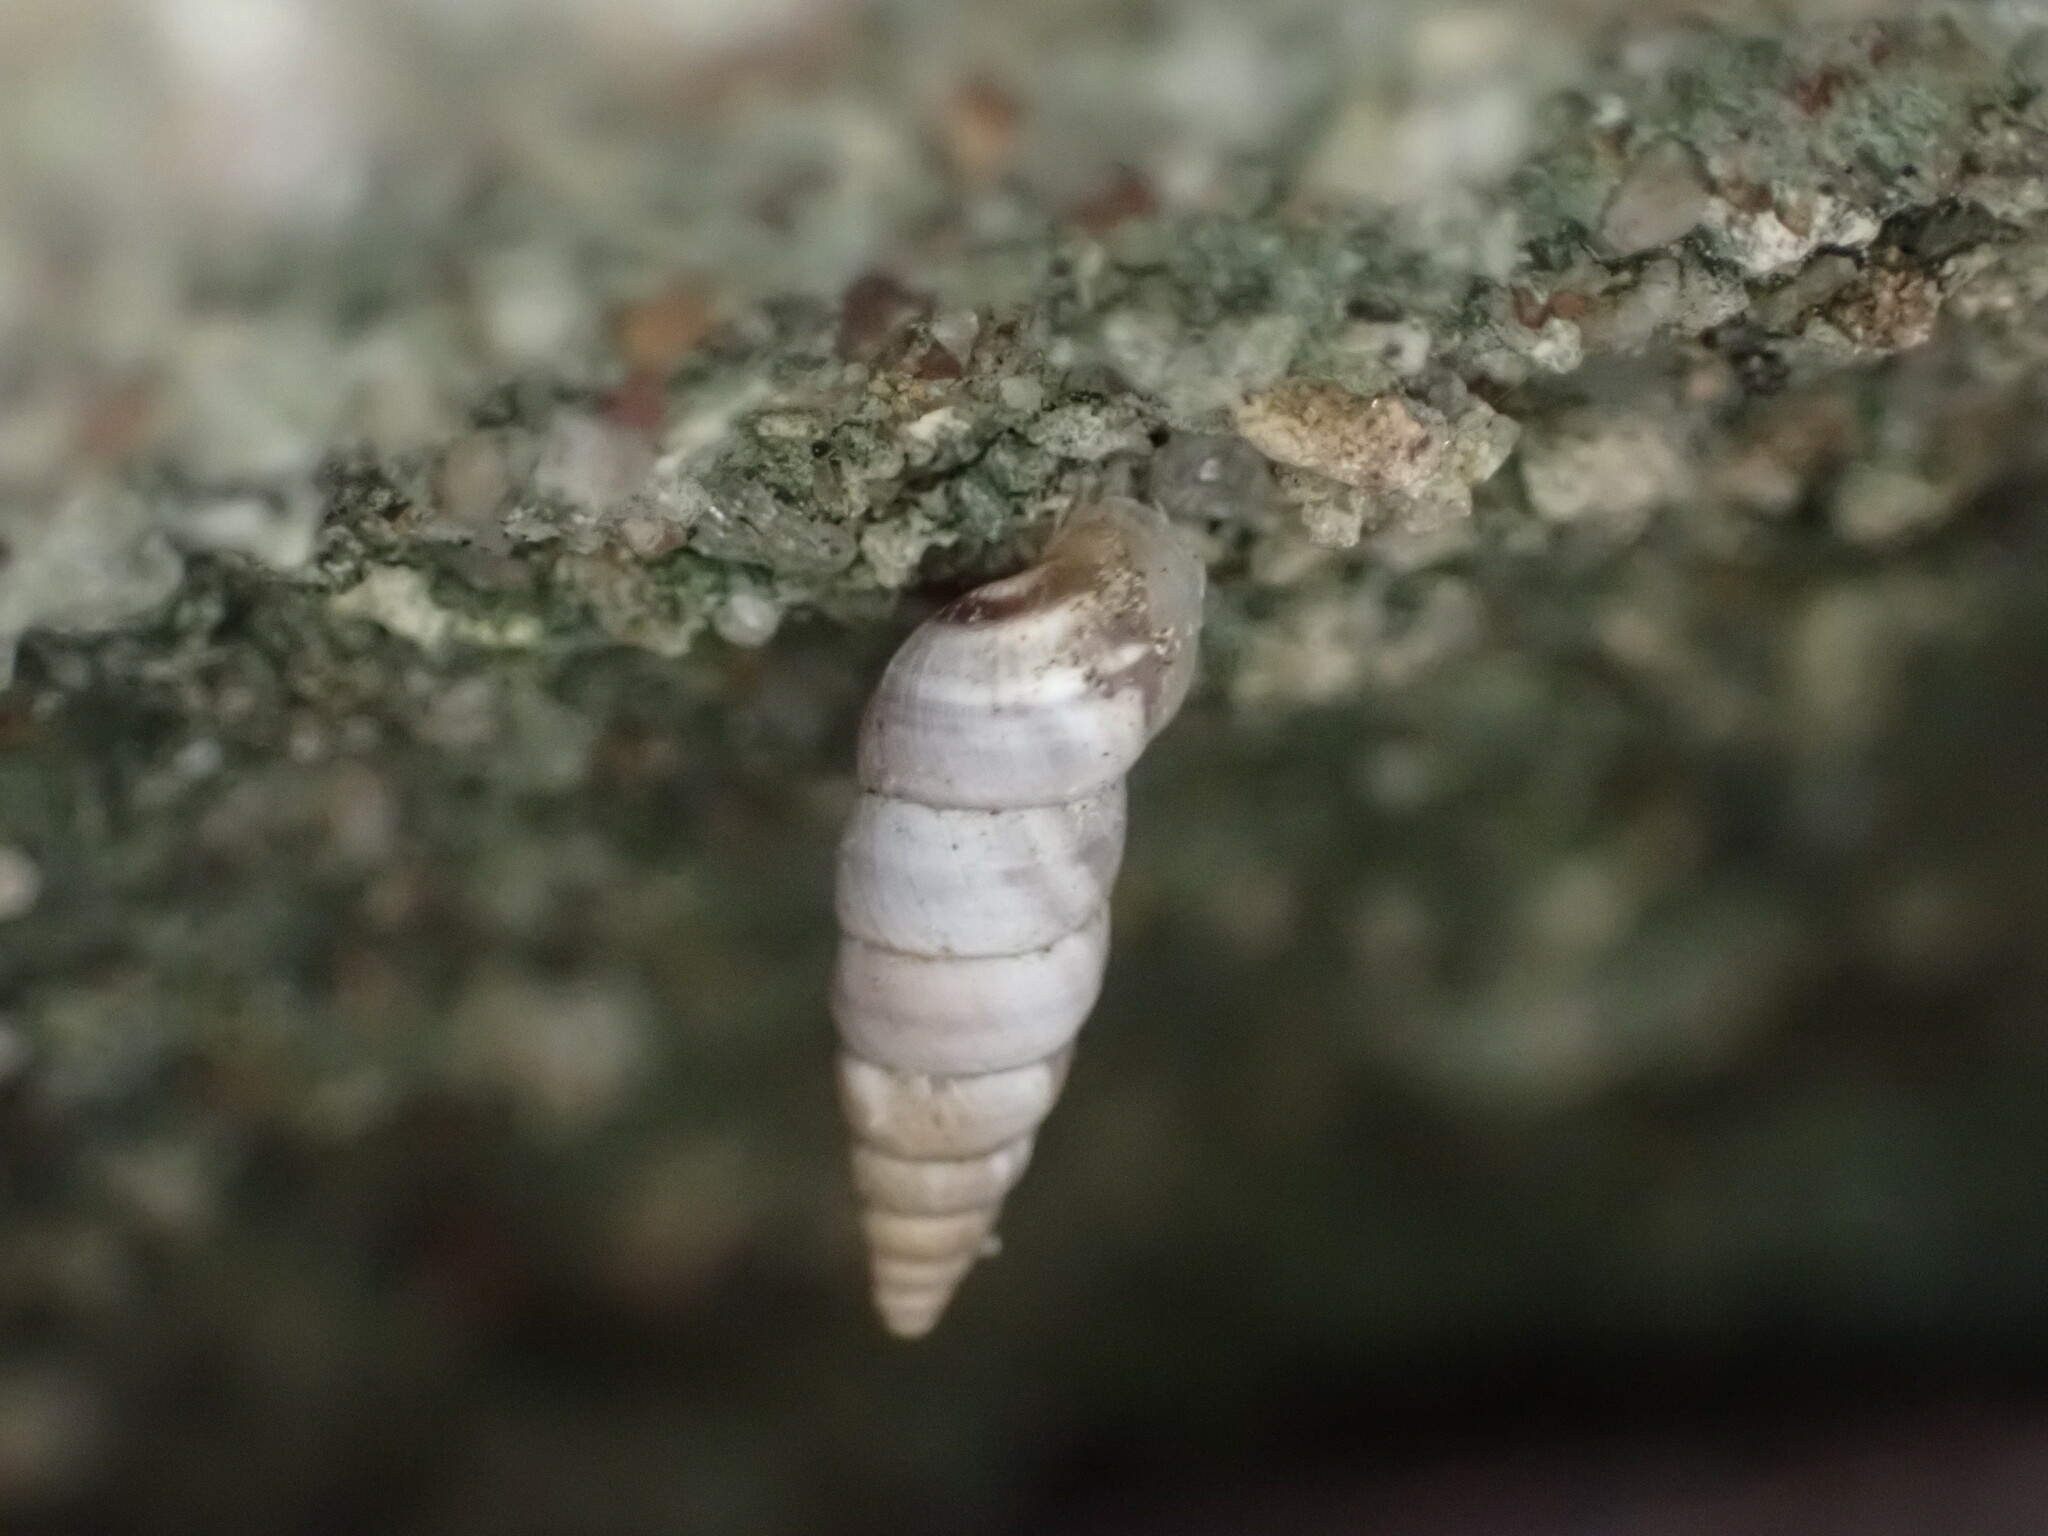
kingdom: Animalia
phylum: Mollusca
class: Gastropoda
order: Stylommatophora
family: Chondrinidae
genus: Solatopupa
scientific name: Solatopupa similis
